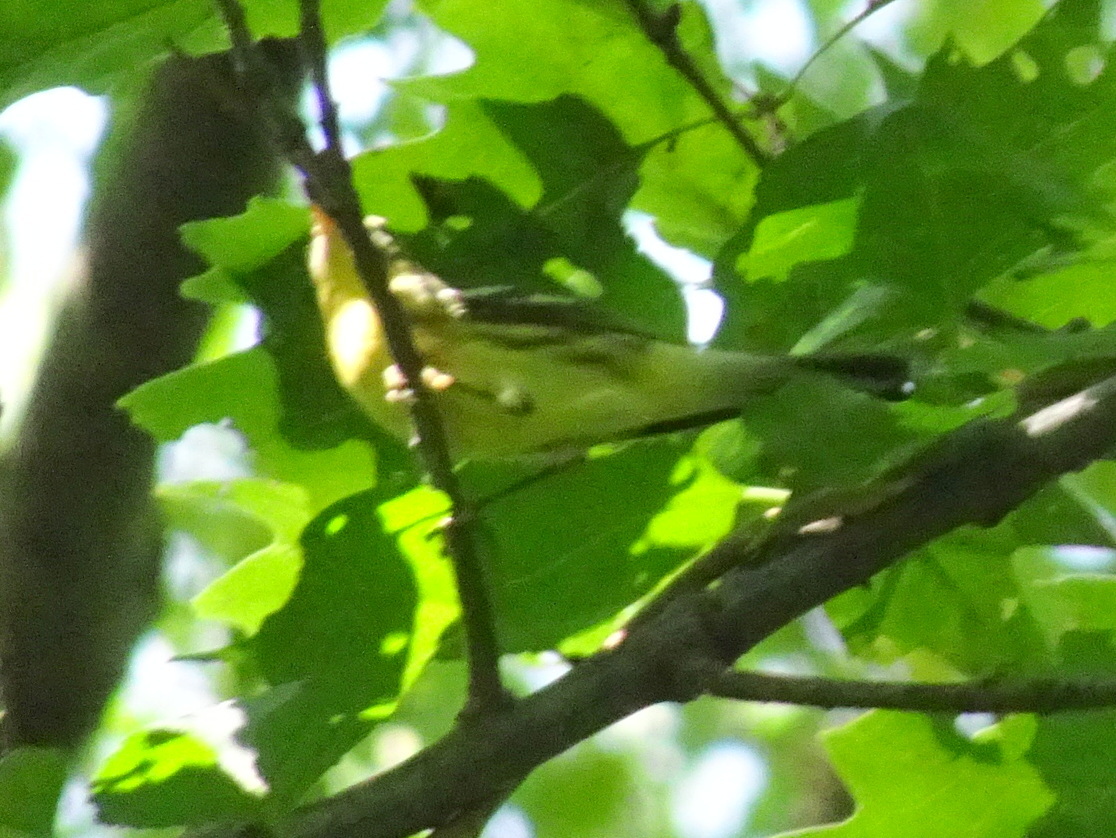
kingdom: Animalia
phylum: Chordata
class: Aves
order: Passeriformes
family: Parulidae
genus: Setophaga
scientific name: Setophaga fusca
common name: Blackburnian warbler
